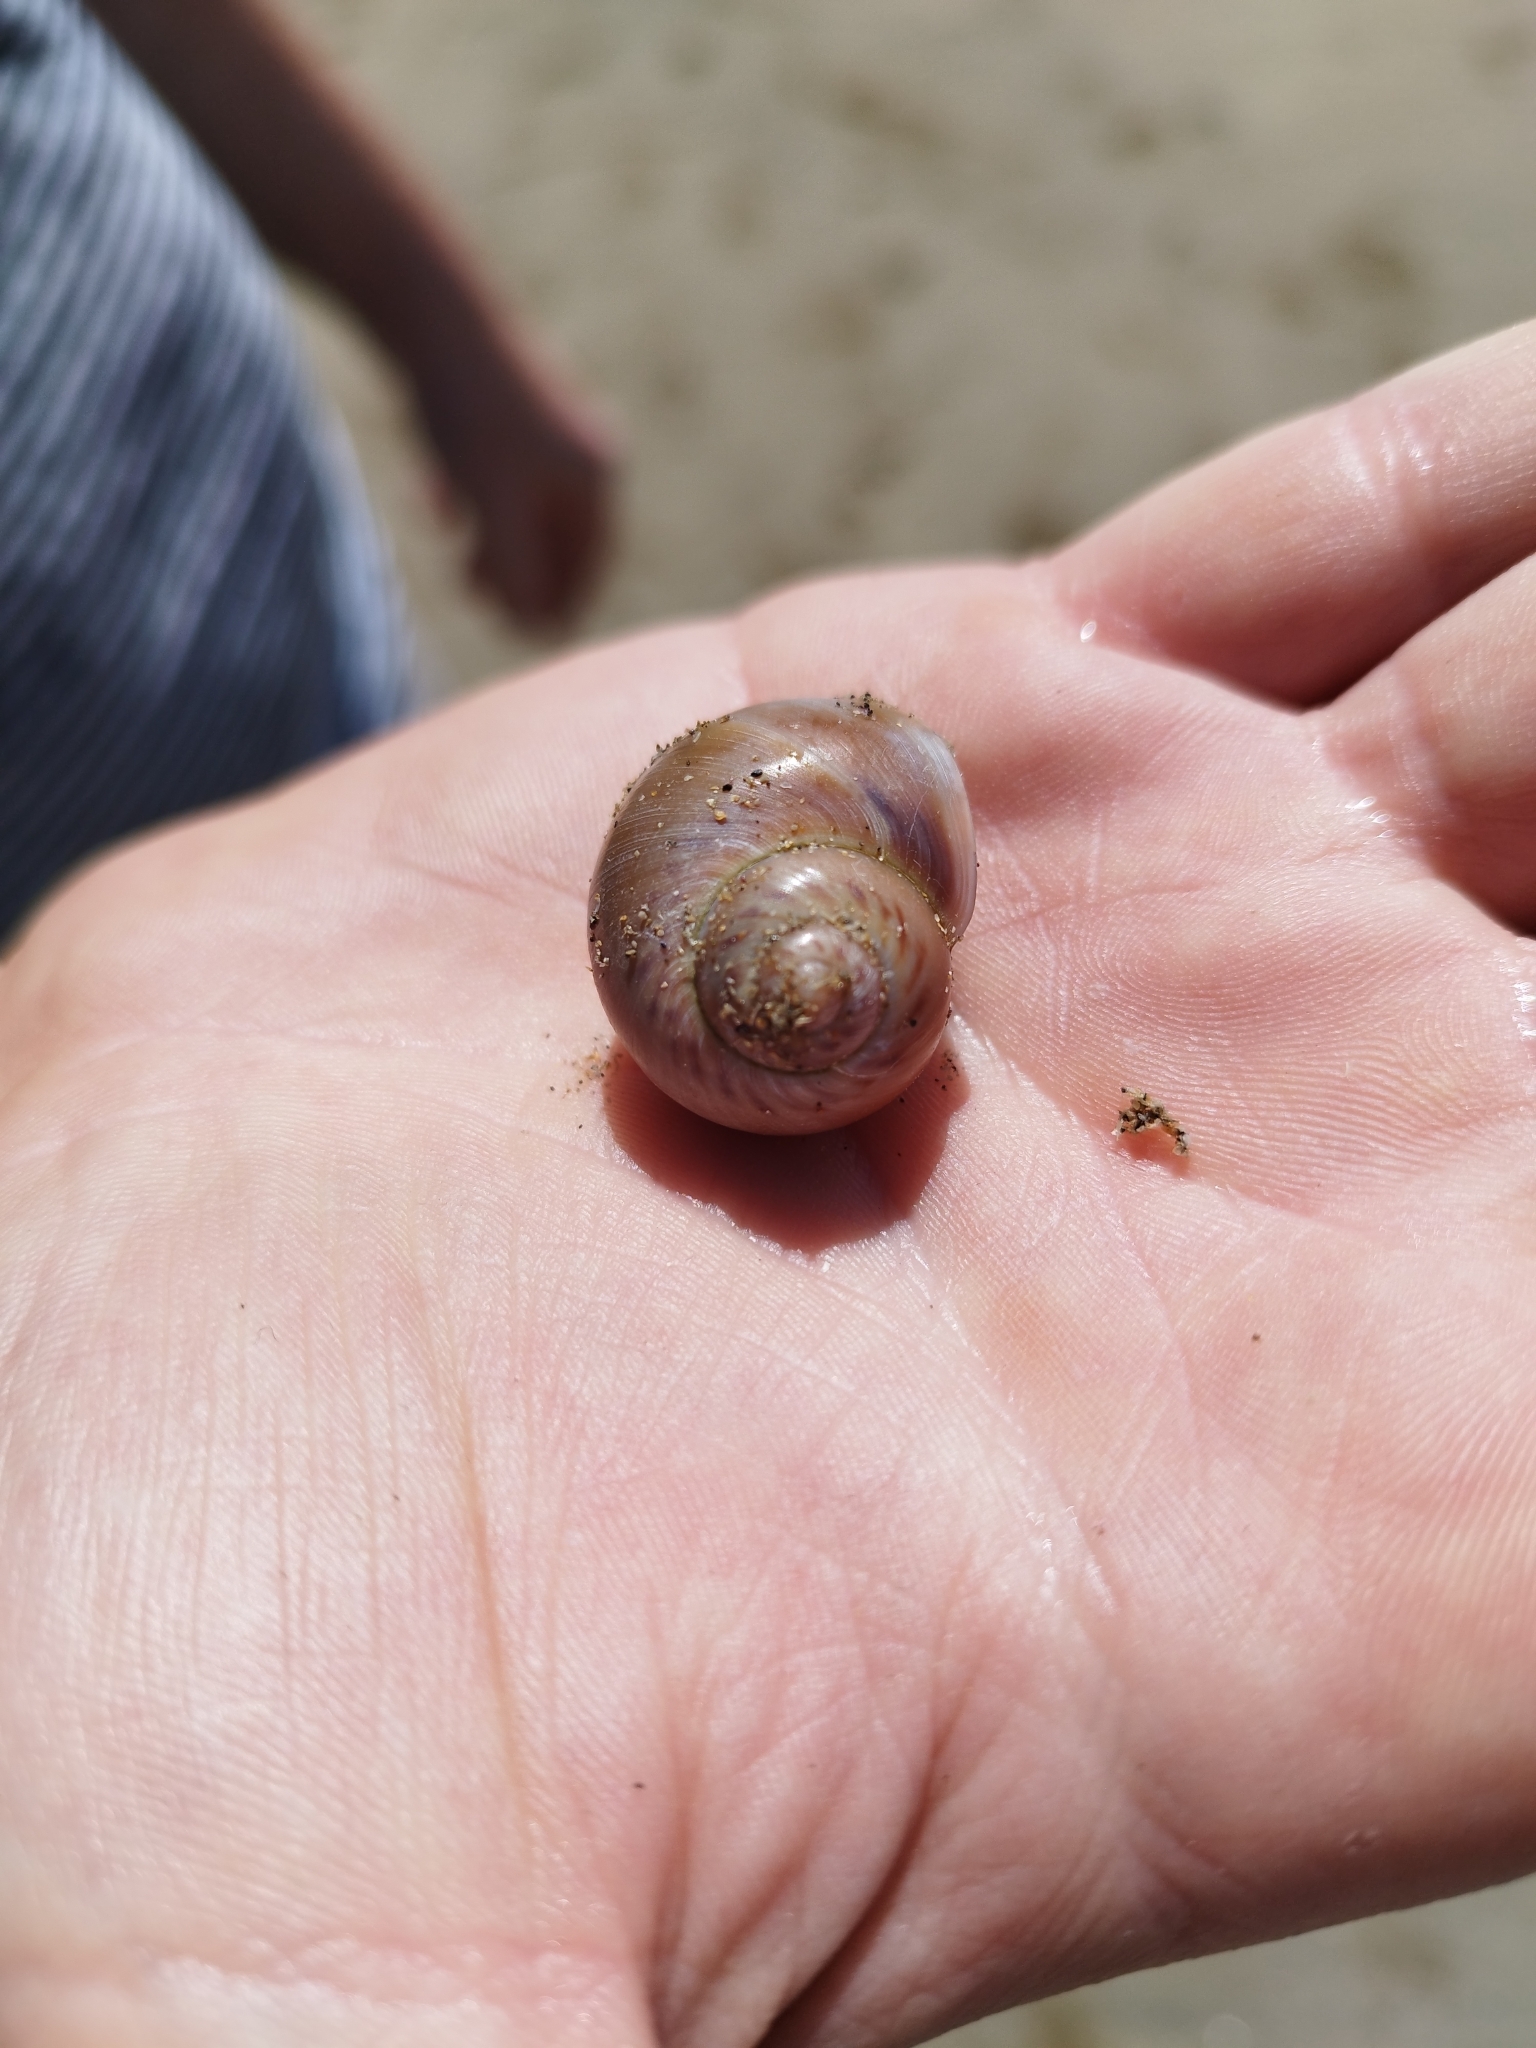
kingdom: Animalia
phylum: Mollusca
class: Gastropoda
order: Littorinimorpha
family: Naticidae
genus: Euspira
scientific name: Euspira catena
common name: Necklace shell
